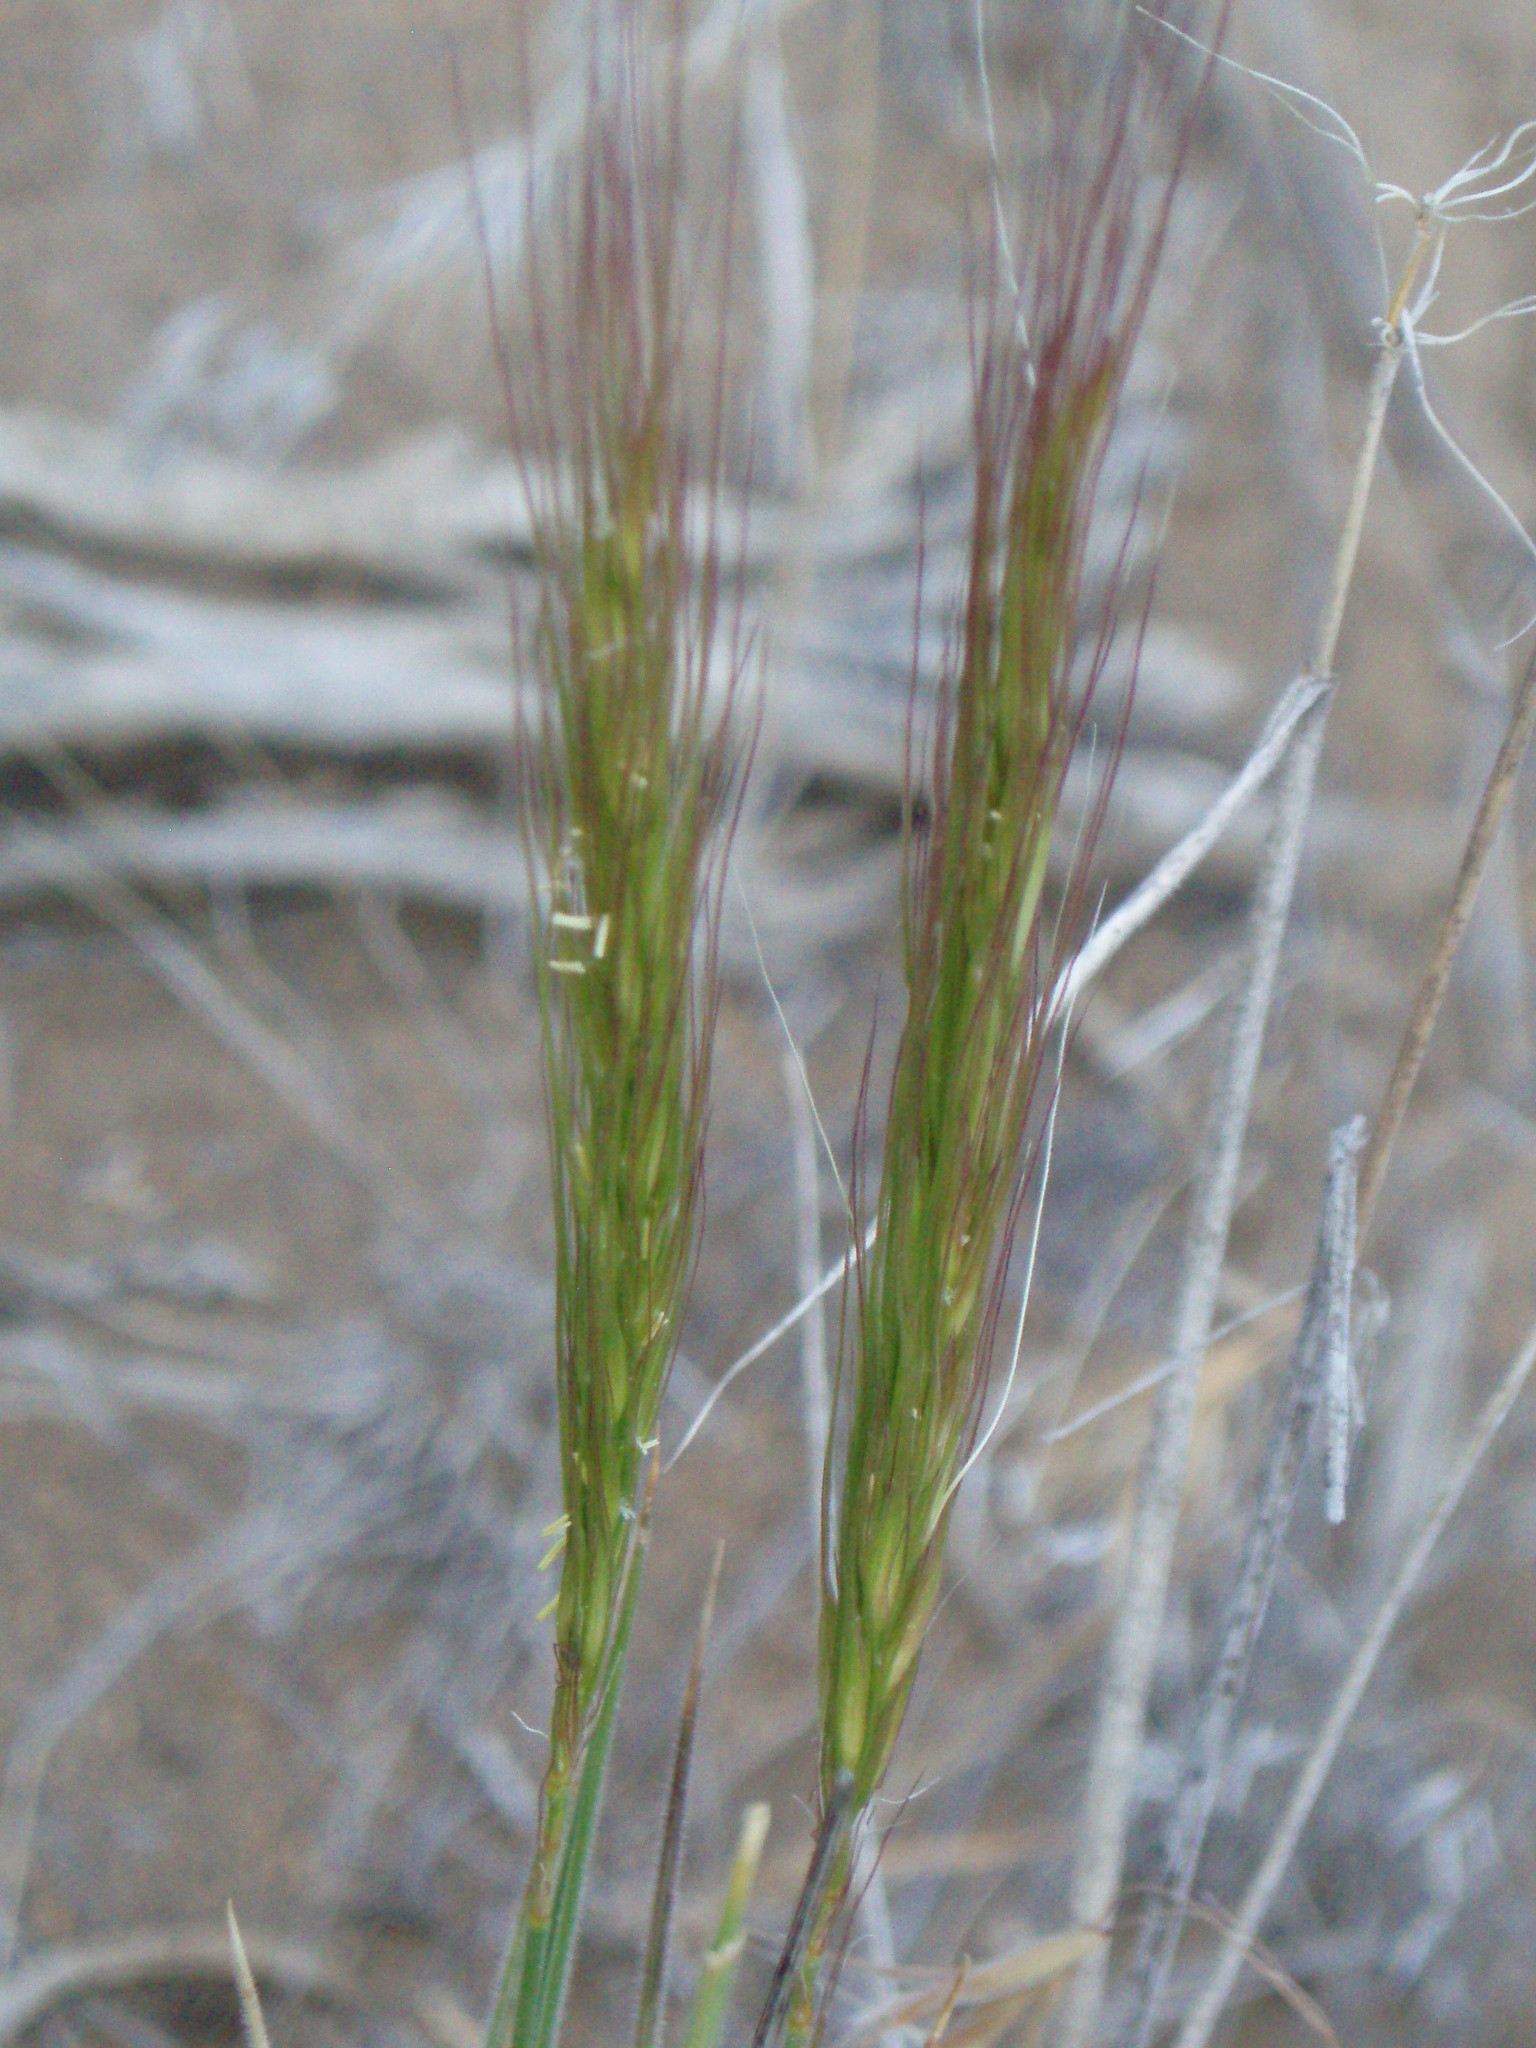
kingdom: Plantae
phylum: Tracheophyta
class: Liliopsida
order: Poales
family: Poaceae
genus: Elymus
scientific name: Elymus elymoides
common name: Bottlebrush squirreltail
